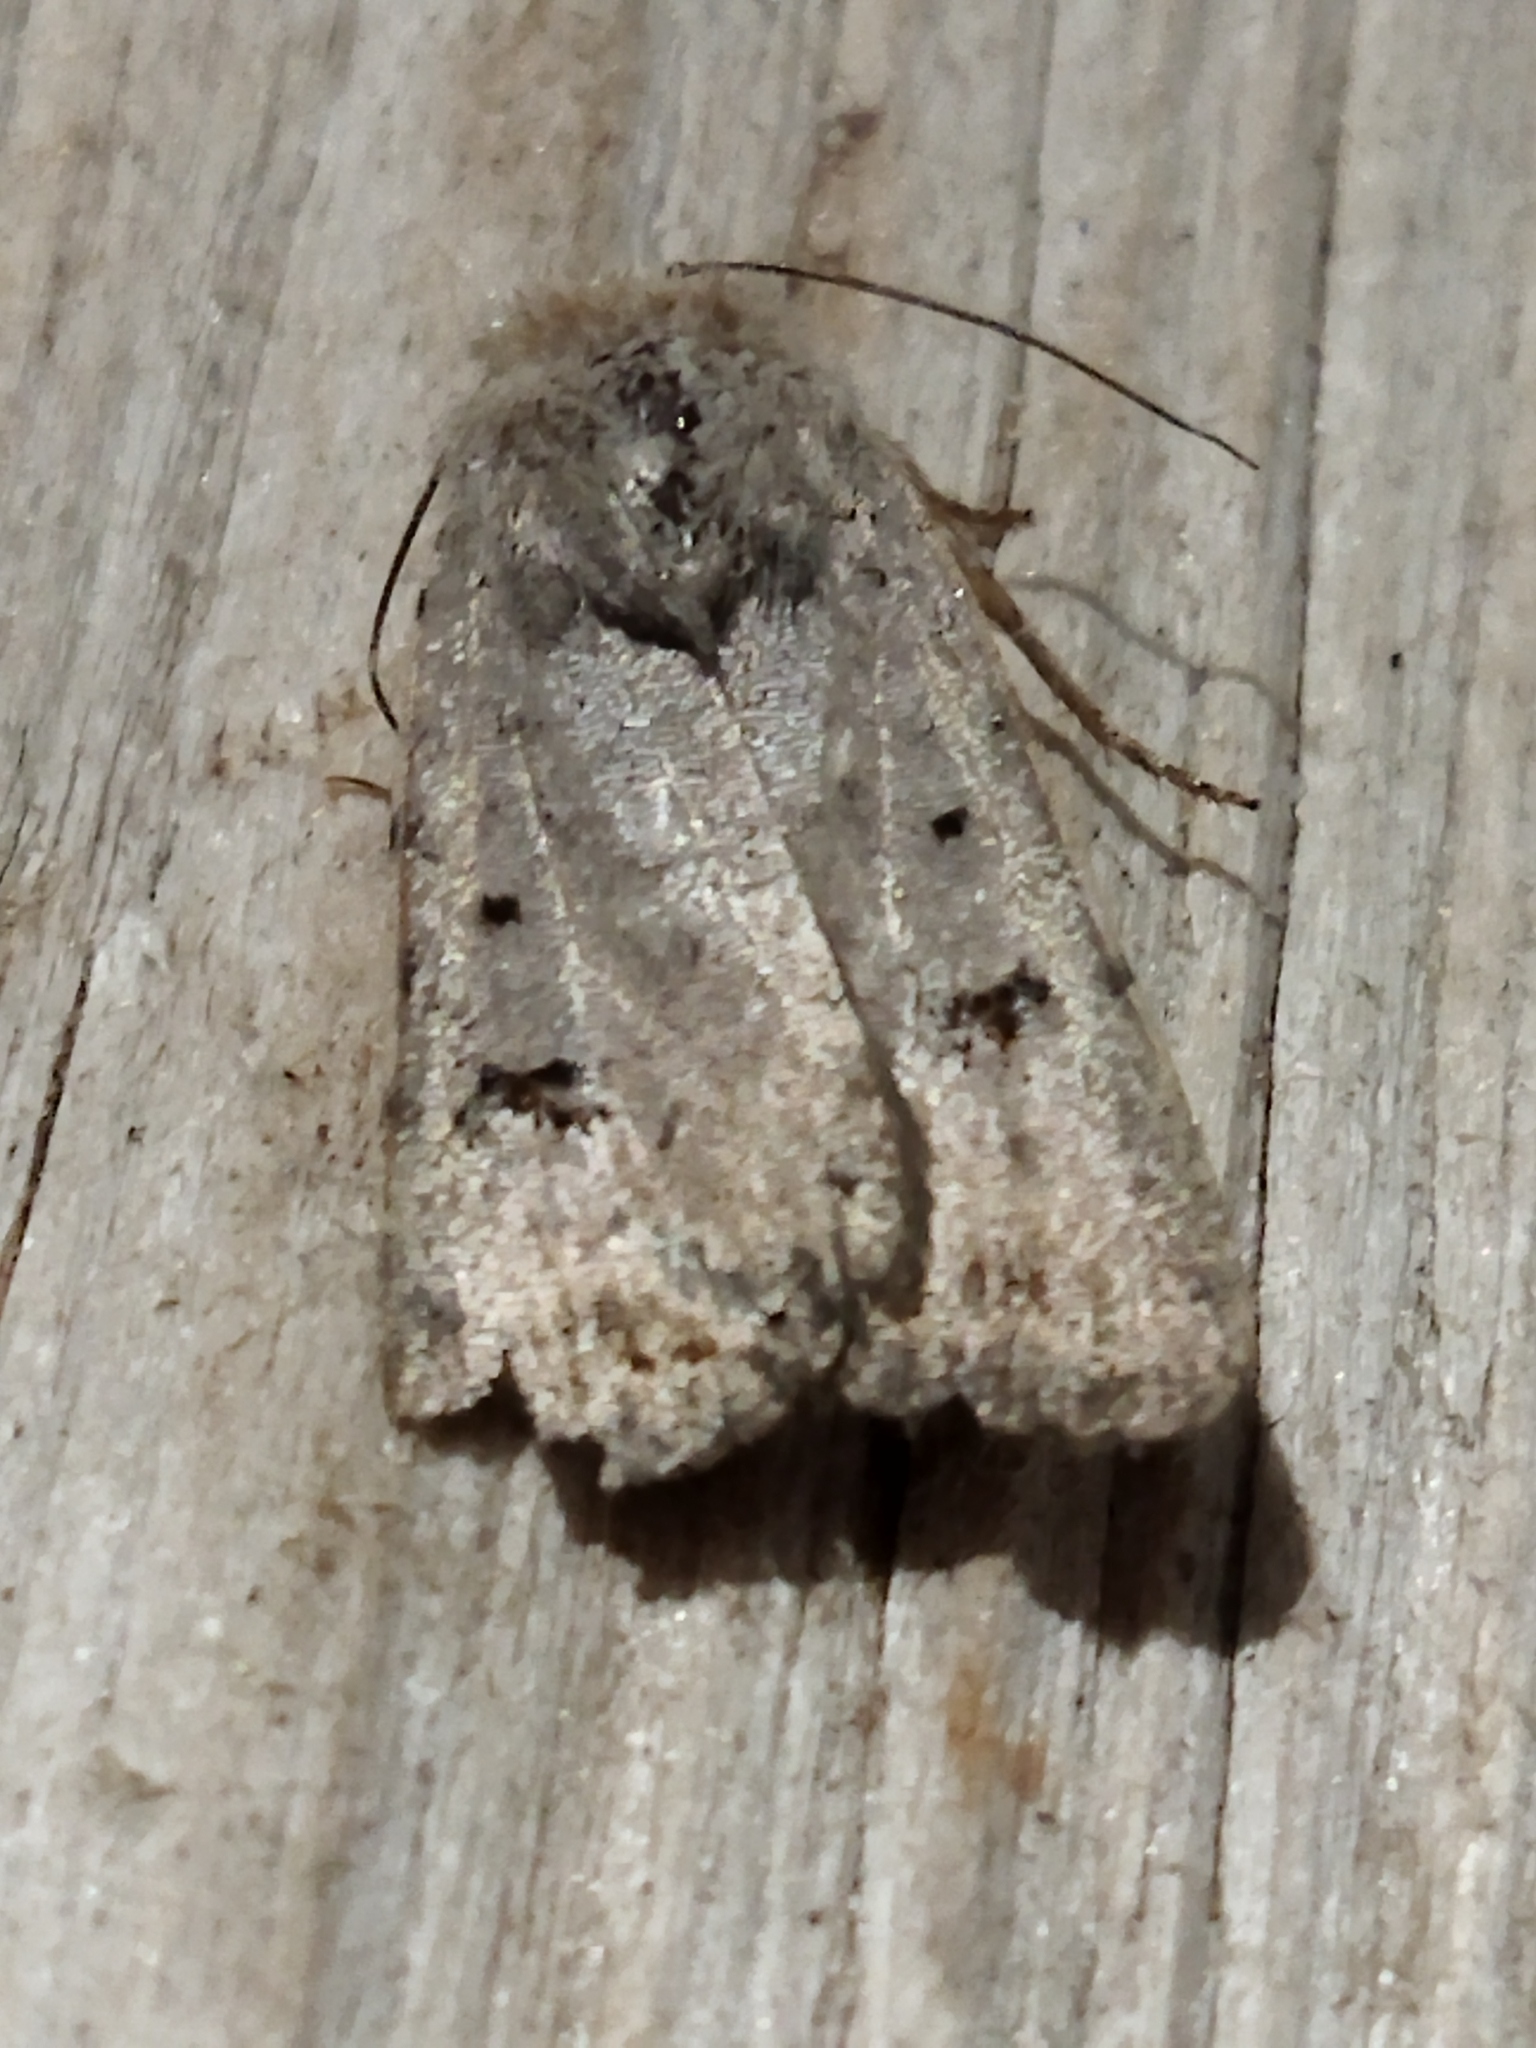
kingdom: Animalia
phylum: Arthropoda
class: Insecta
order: Lepidoptera
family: Noctuidae
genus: Caradrina
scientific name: Caradrina kadenii
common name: Clancy's rustic
